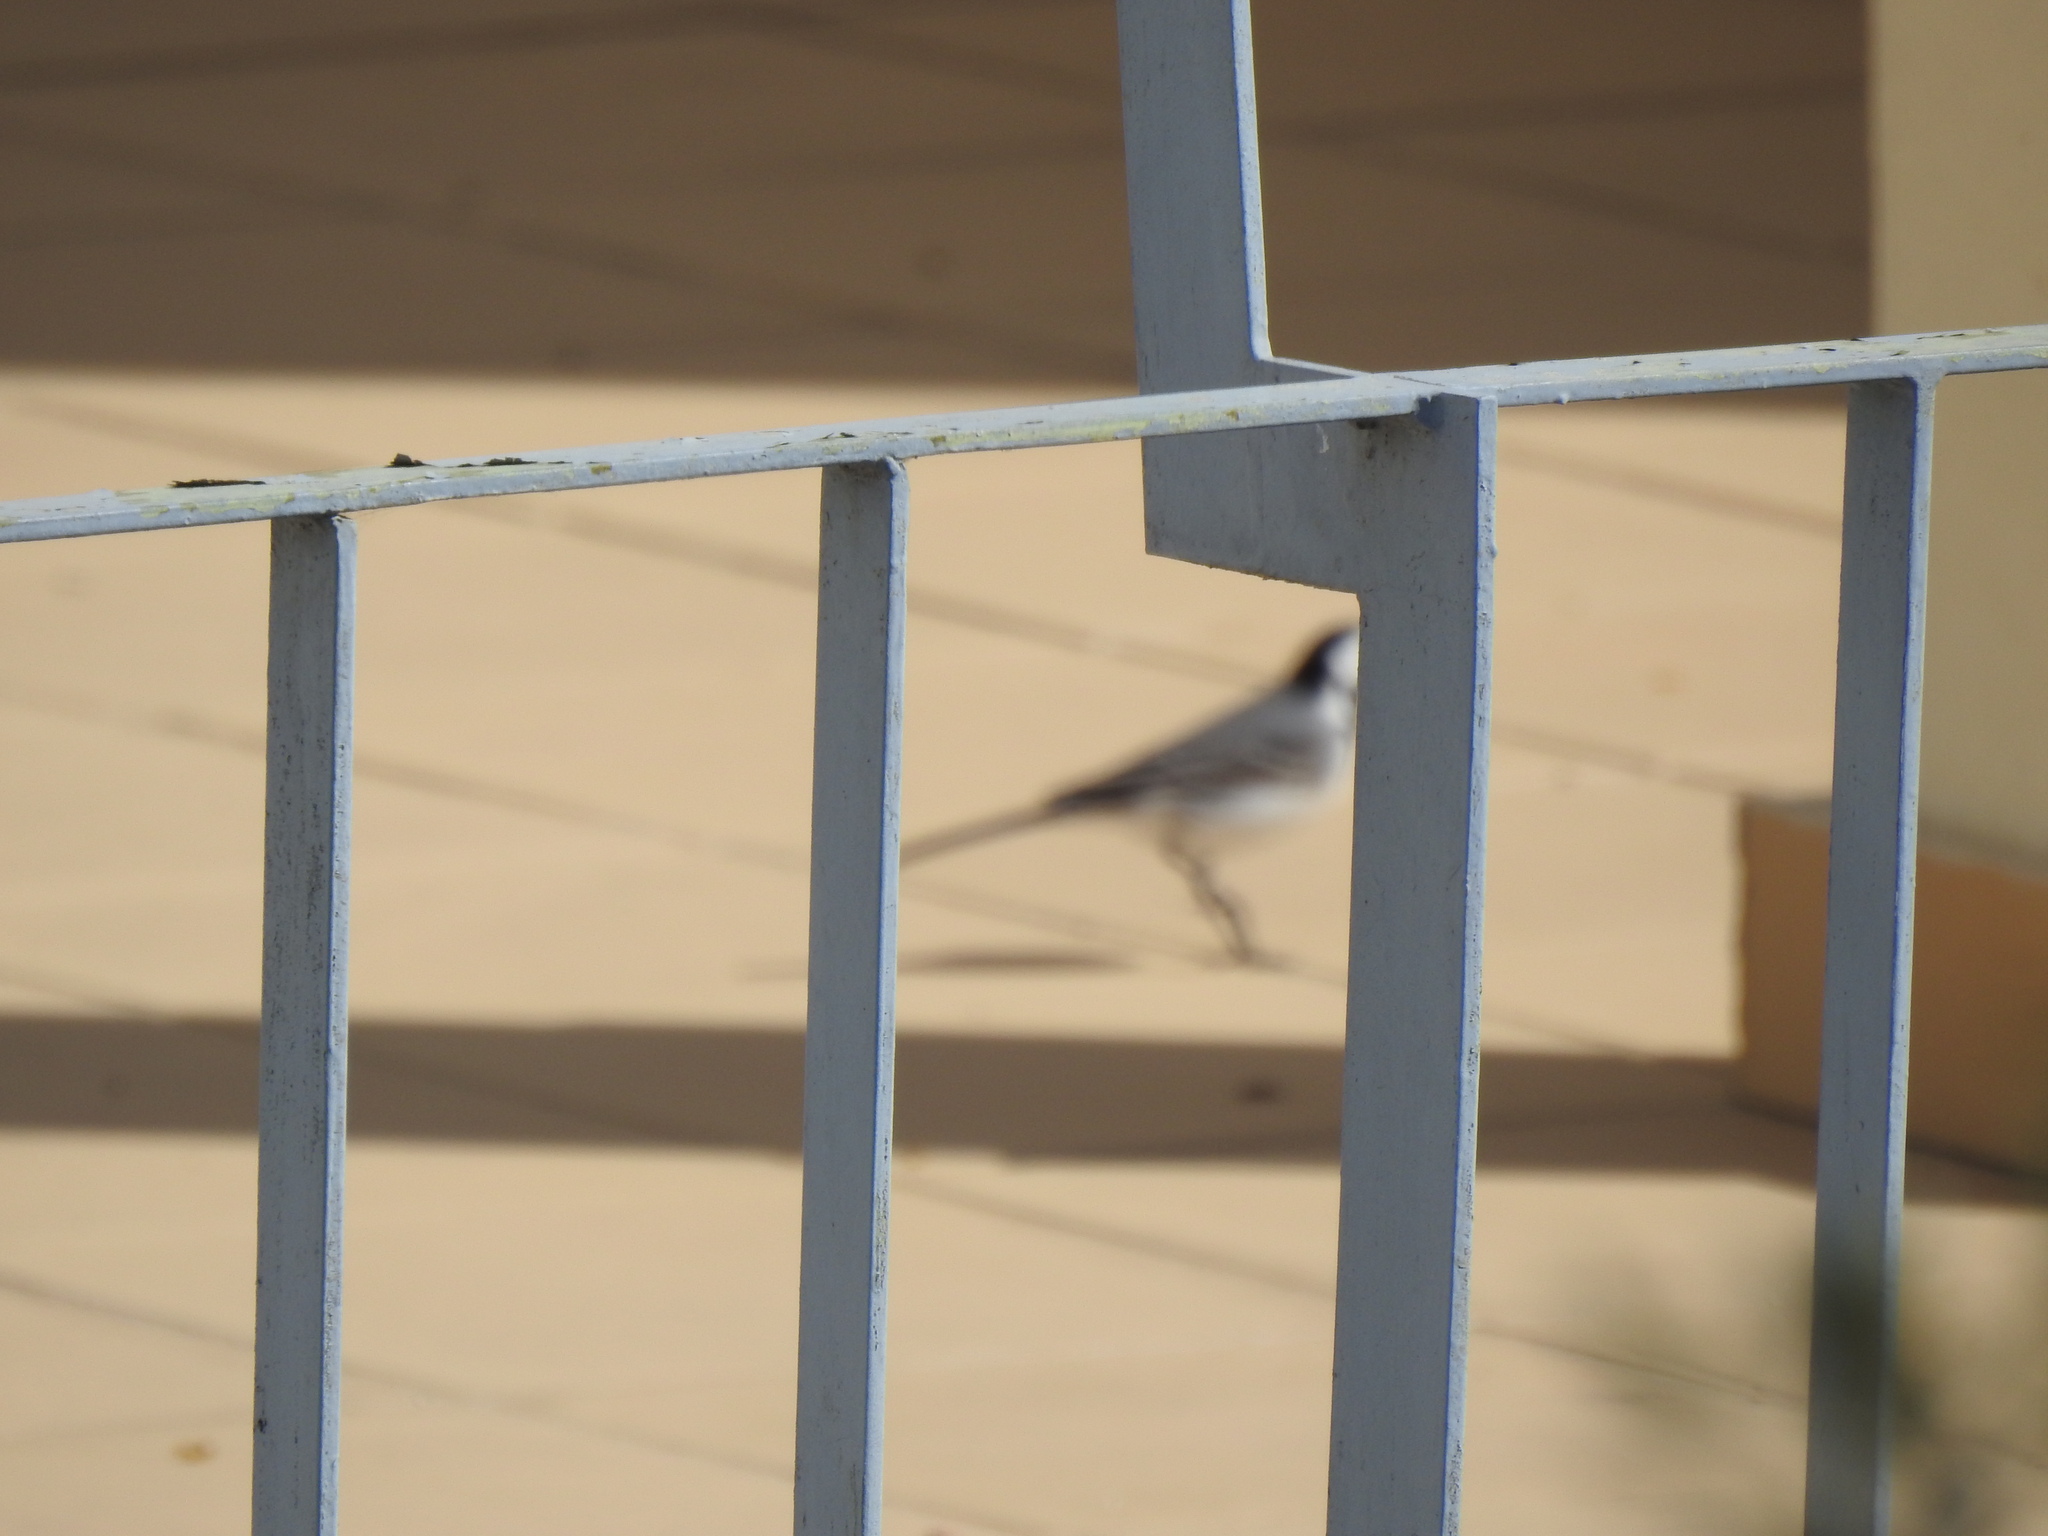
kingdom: Animalia
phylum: Chordata
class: Aves
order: Passeriformes
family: Motacillidae
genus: Motacilla
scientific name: Motacilla alba
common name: White wagtail
